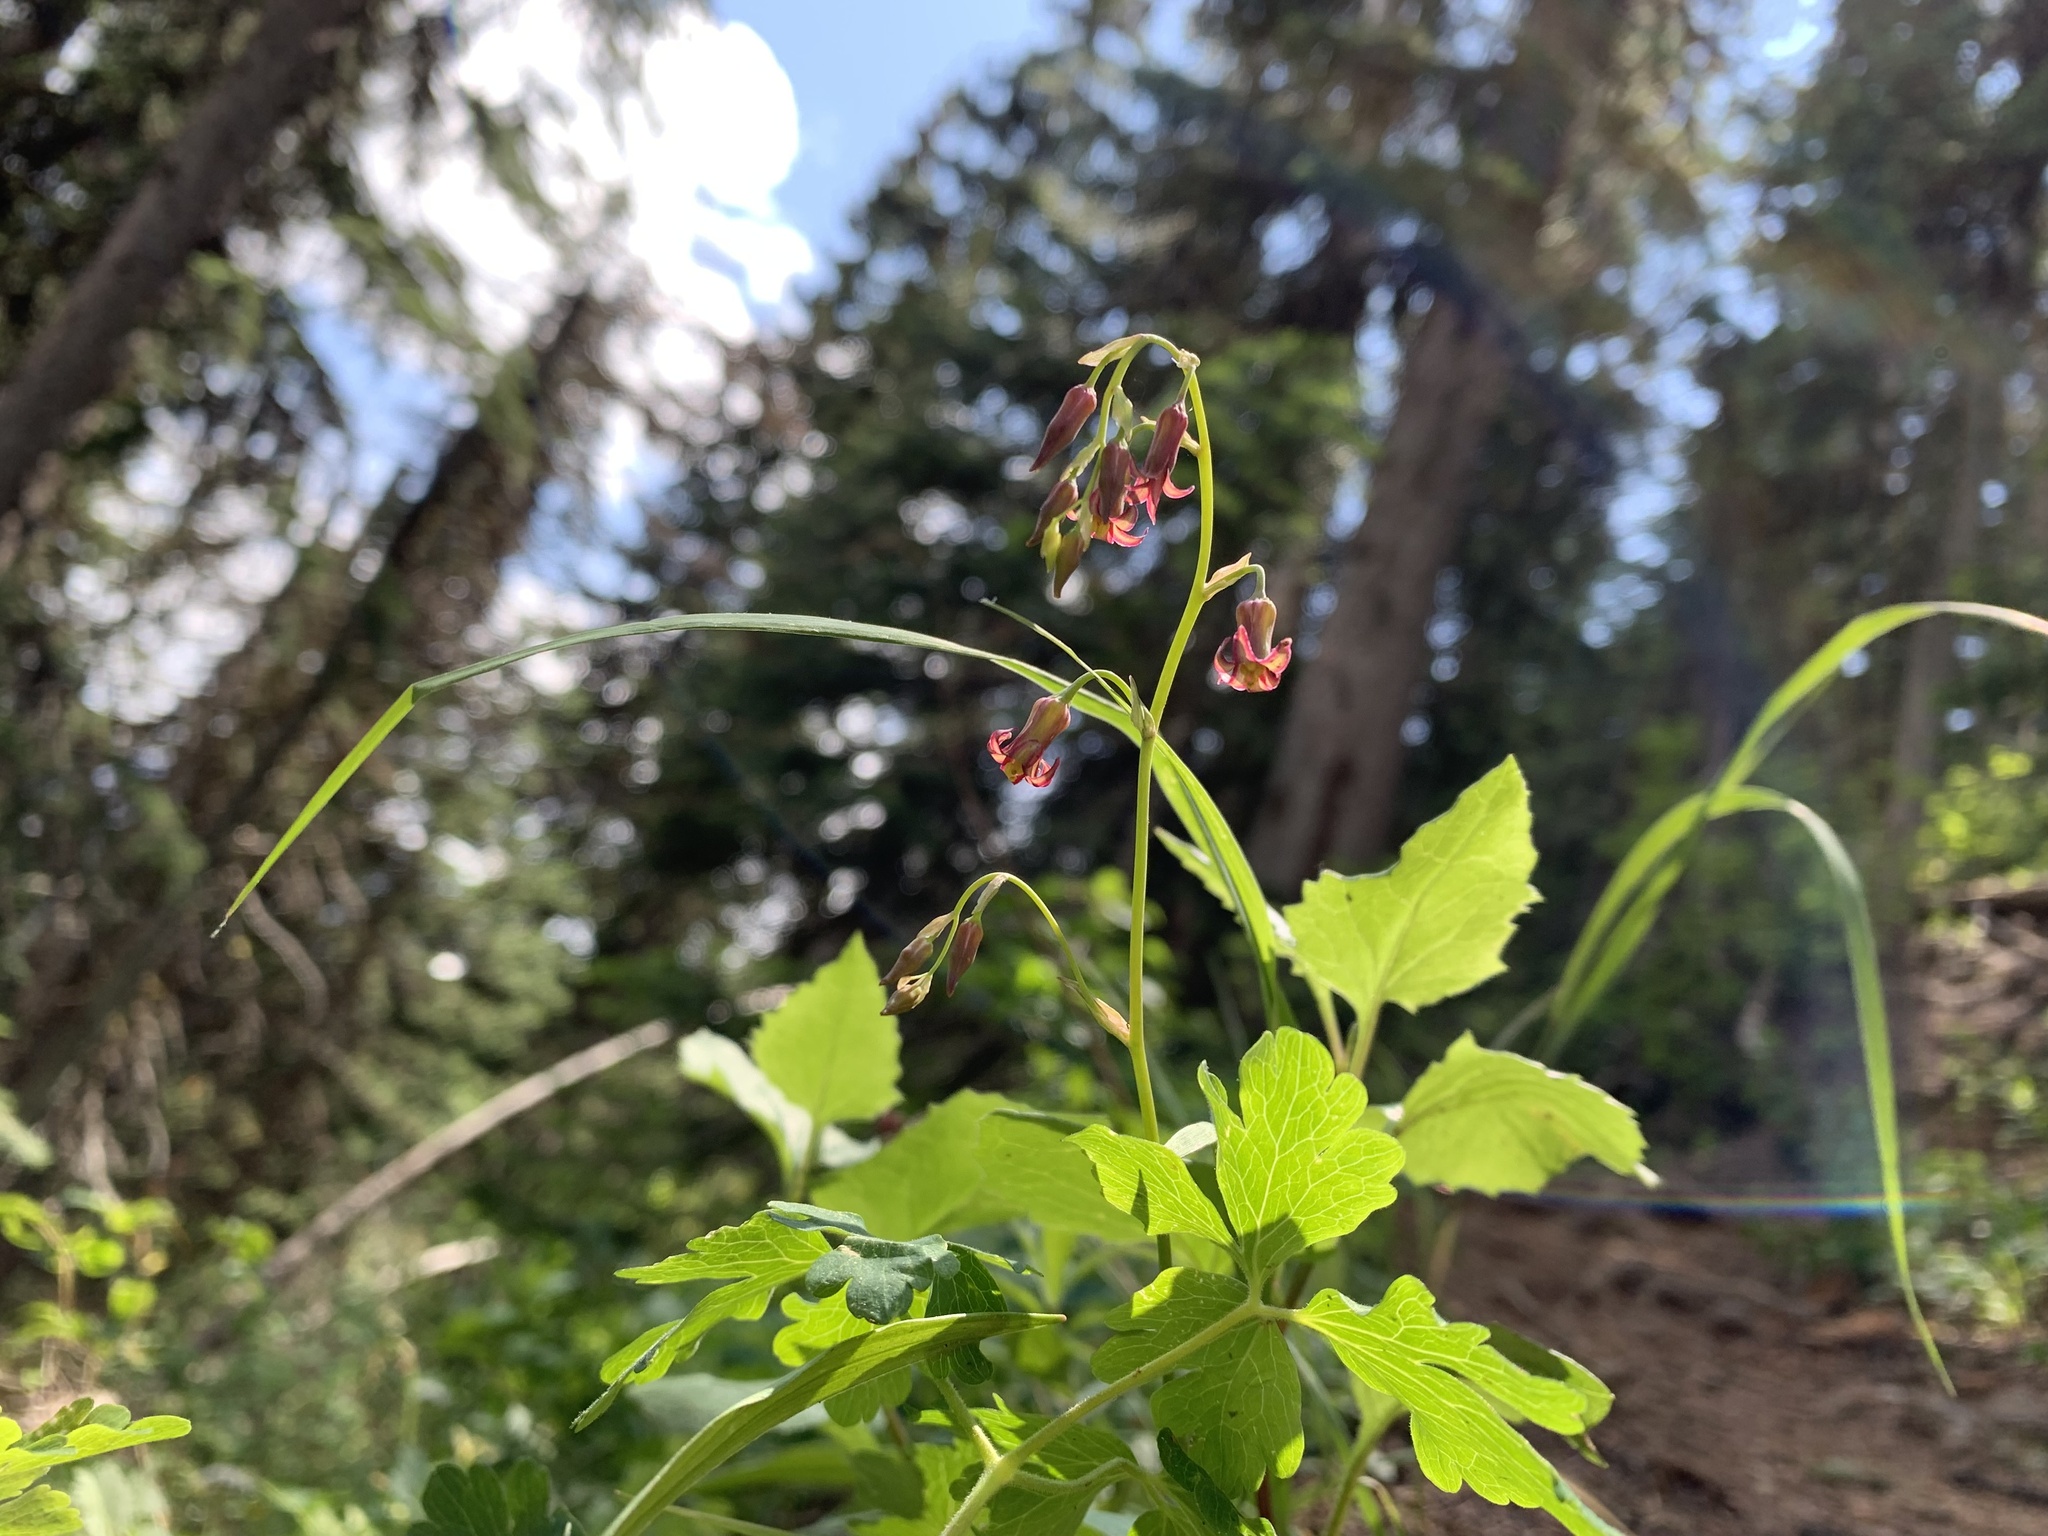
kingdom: Plantae
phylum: Tracheophyta
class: Liliopsida
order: Liliales
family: Melanthiaceae
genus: Anticlea
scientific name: Anticlea occidentalis
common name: Bronze-bells
